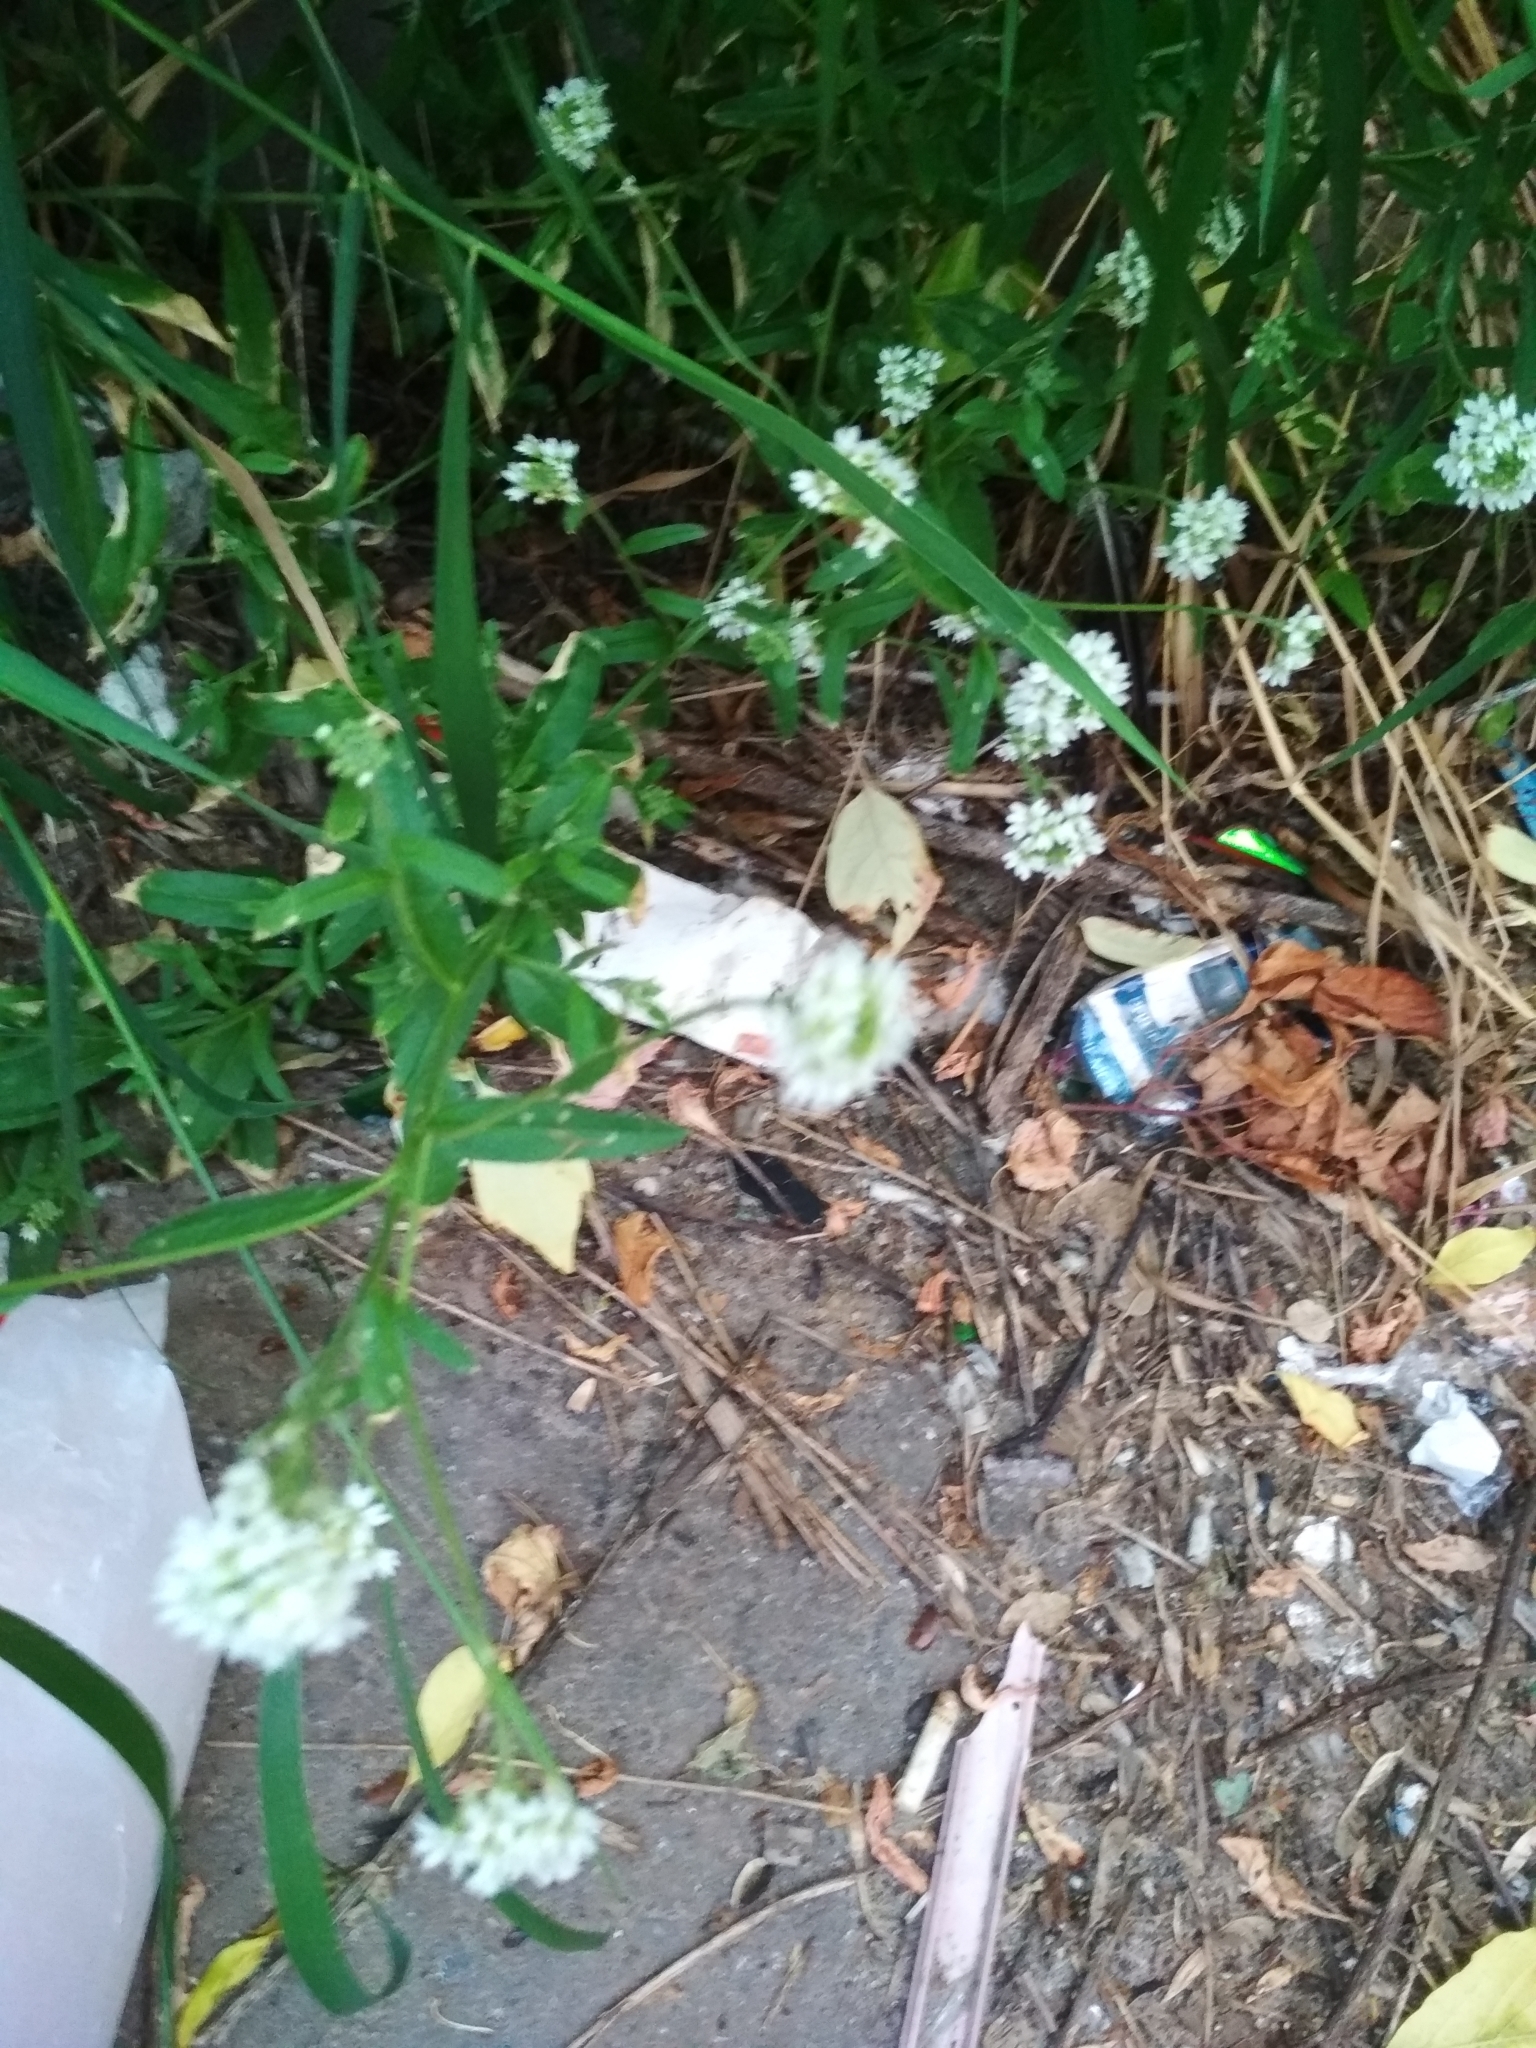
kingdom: Plantae
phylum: Tracheophyta
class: Magnoliopsida
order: Brassicales
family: Brassicaceae
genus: Berteroa
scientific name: Berteroa incana
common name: Hoary alison
